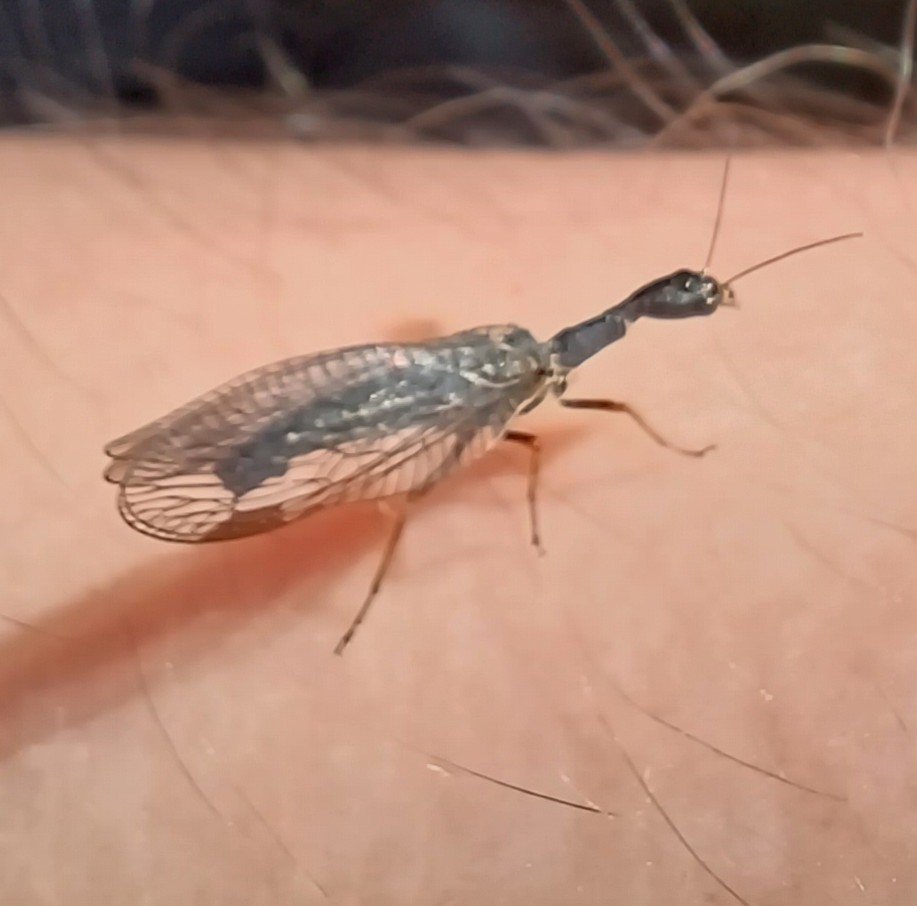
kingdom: Animalia
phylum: Arthropoda
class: Insecta
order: Raphidioptera
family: Raphidiidae
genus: Phaeostigma
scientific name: Phaeostigma notatum
